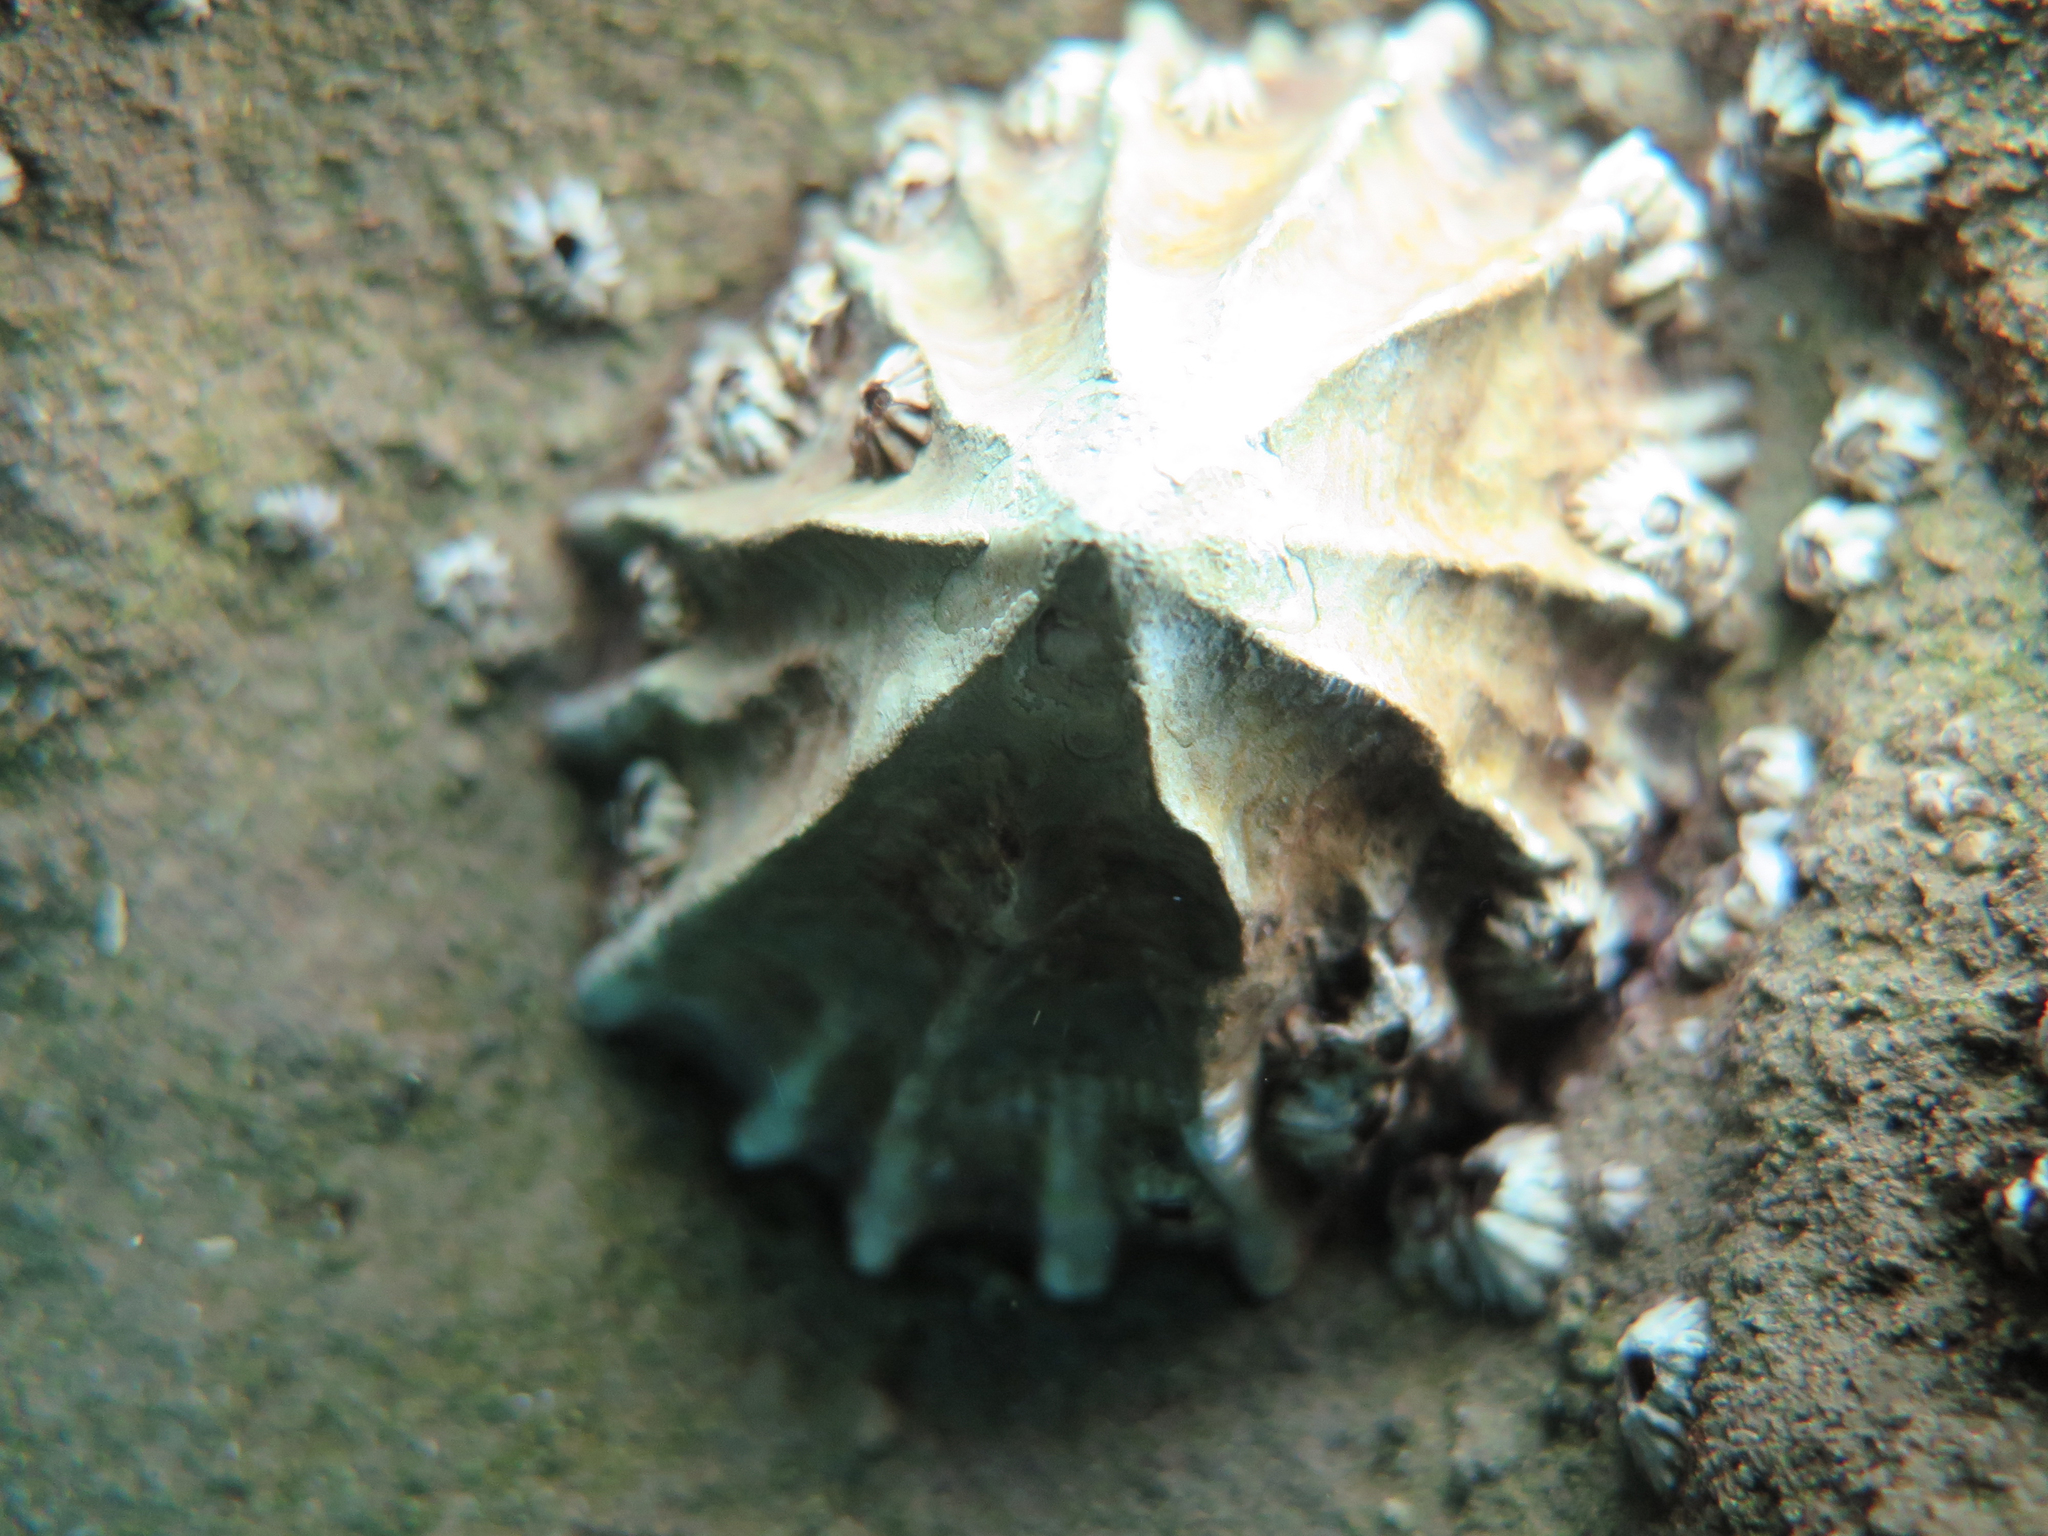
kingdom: Animalia
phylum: Mollusca
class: Gastropoda
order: Siphonariida
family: Siphonariidae
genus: Siphonaria
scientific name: Siphonaria gigas
